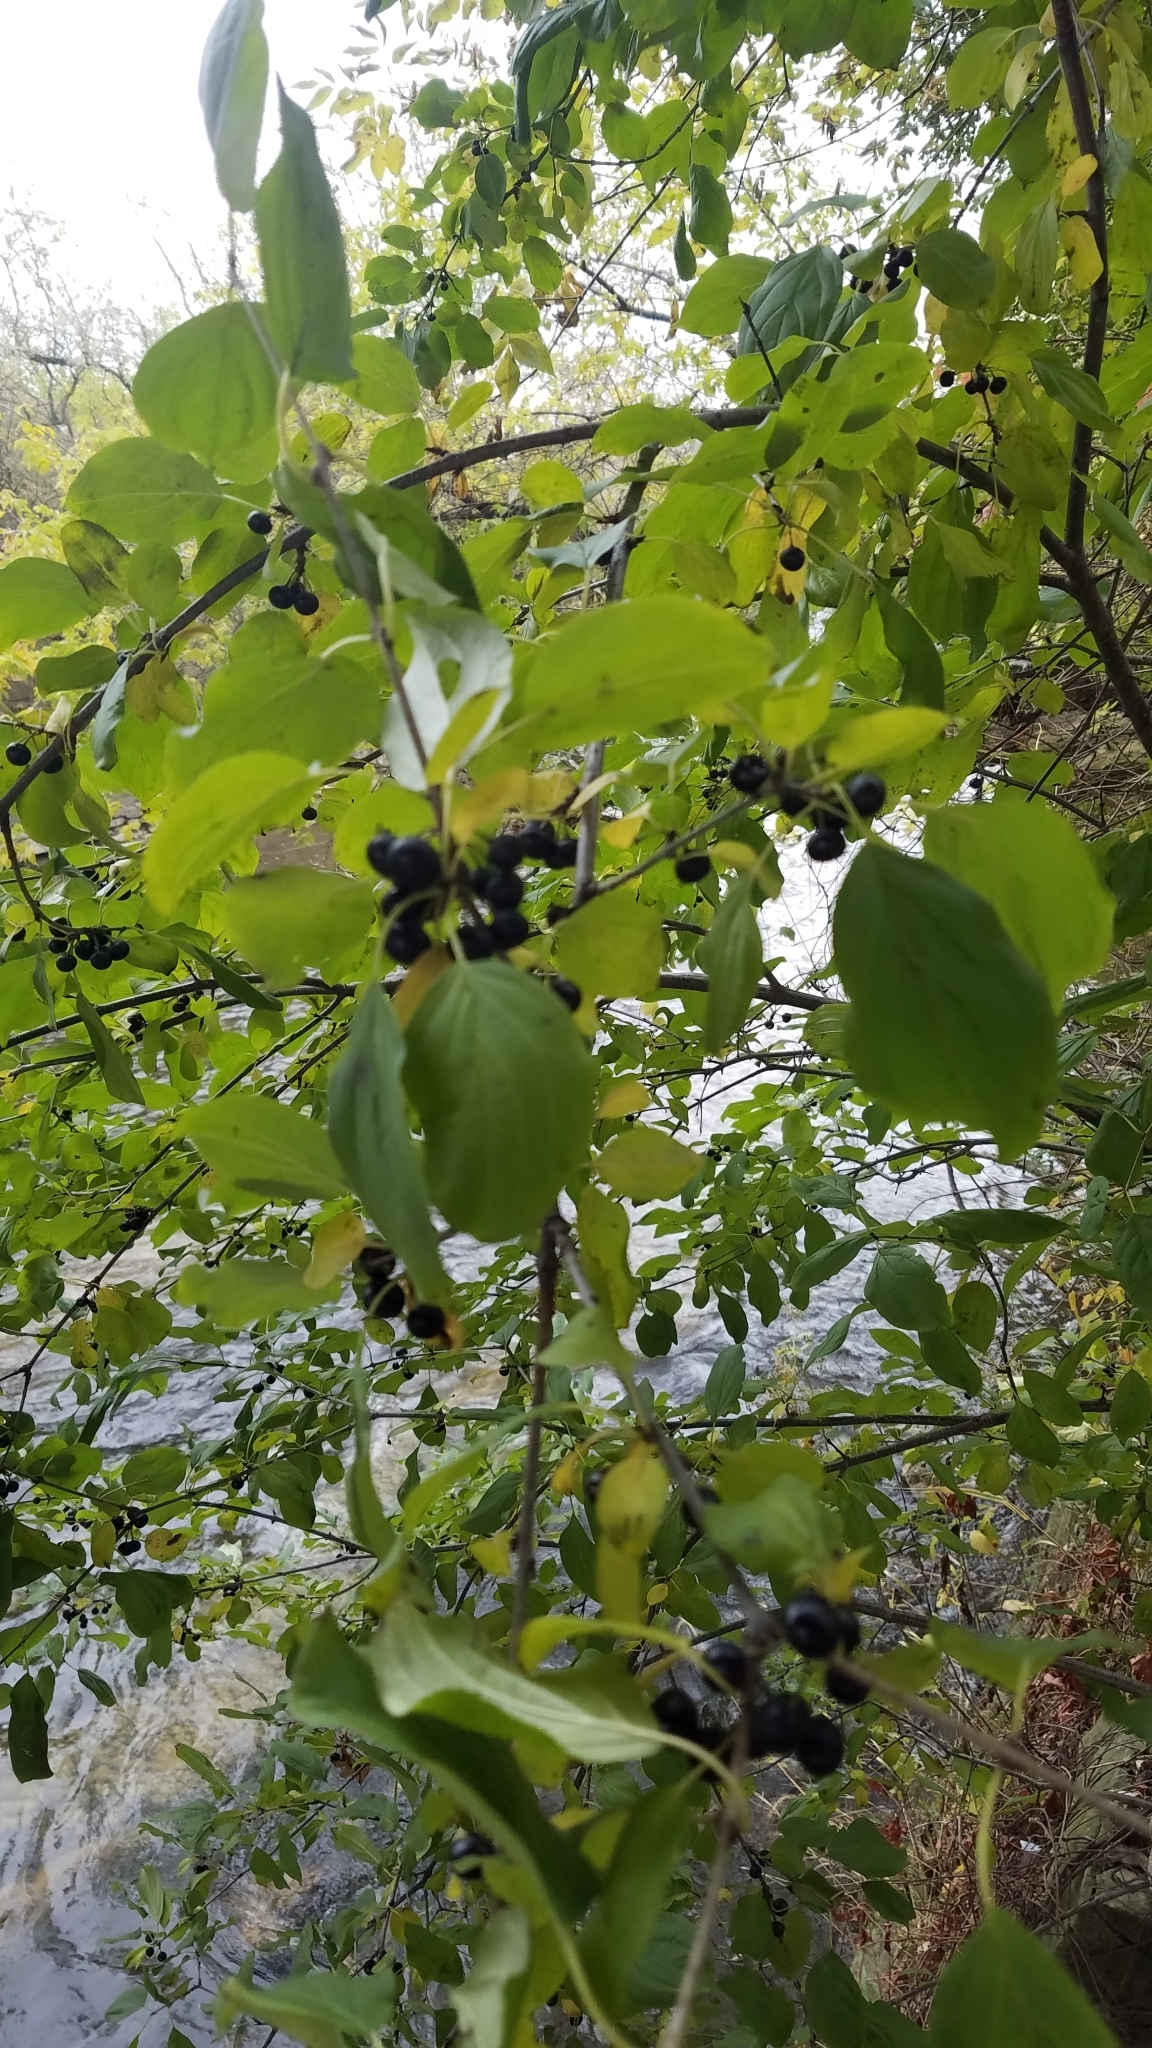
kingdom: Plantae
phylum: Tracheophyta
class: Magnoliopsida
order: Rosales
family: Rhamnaceae
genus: Rhamnus
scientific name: Rhamnus cathartica
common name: Common buckthorn
